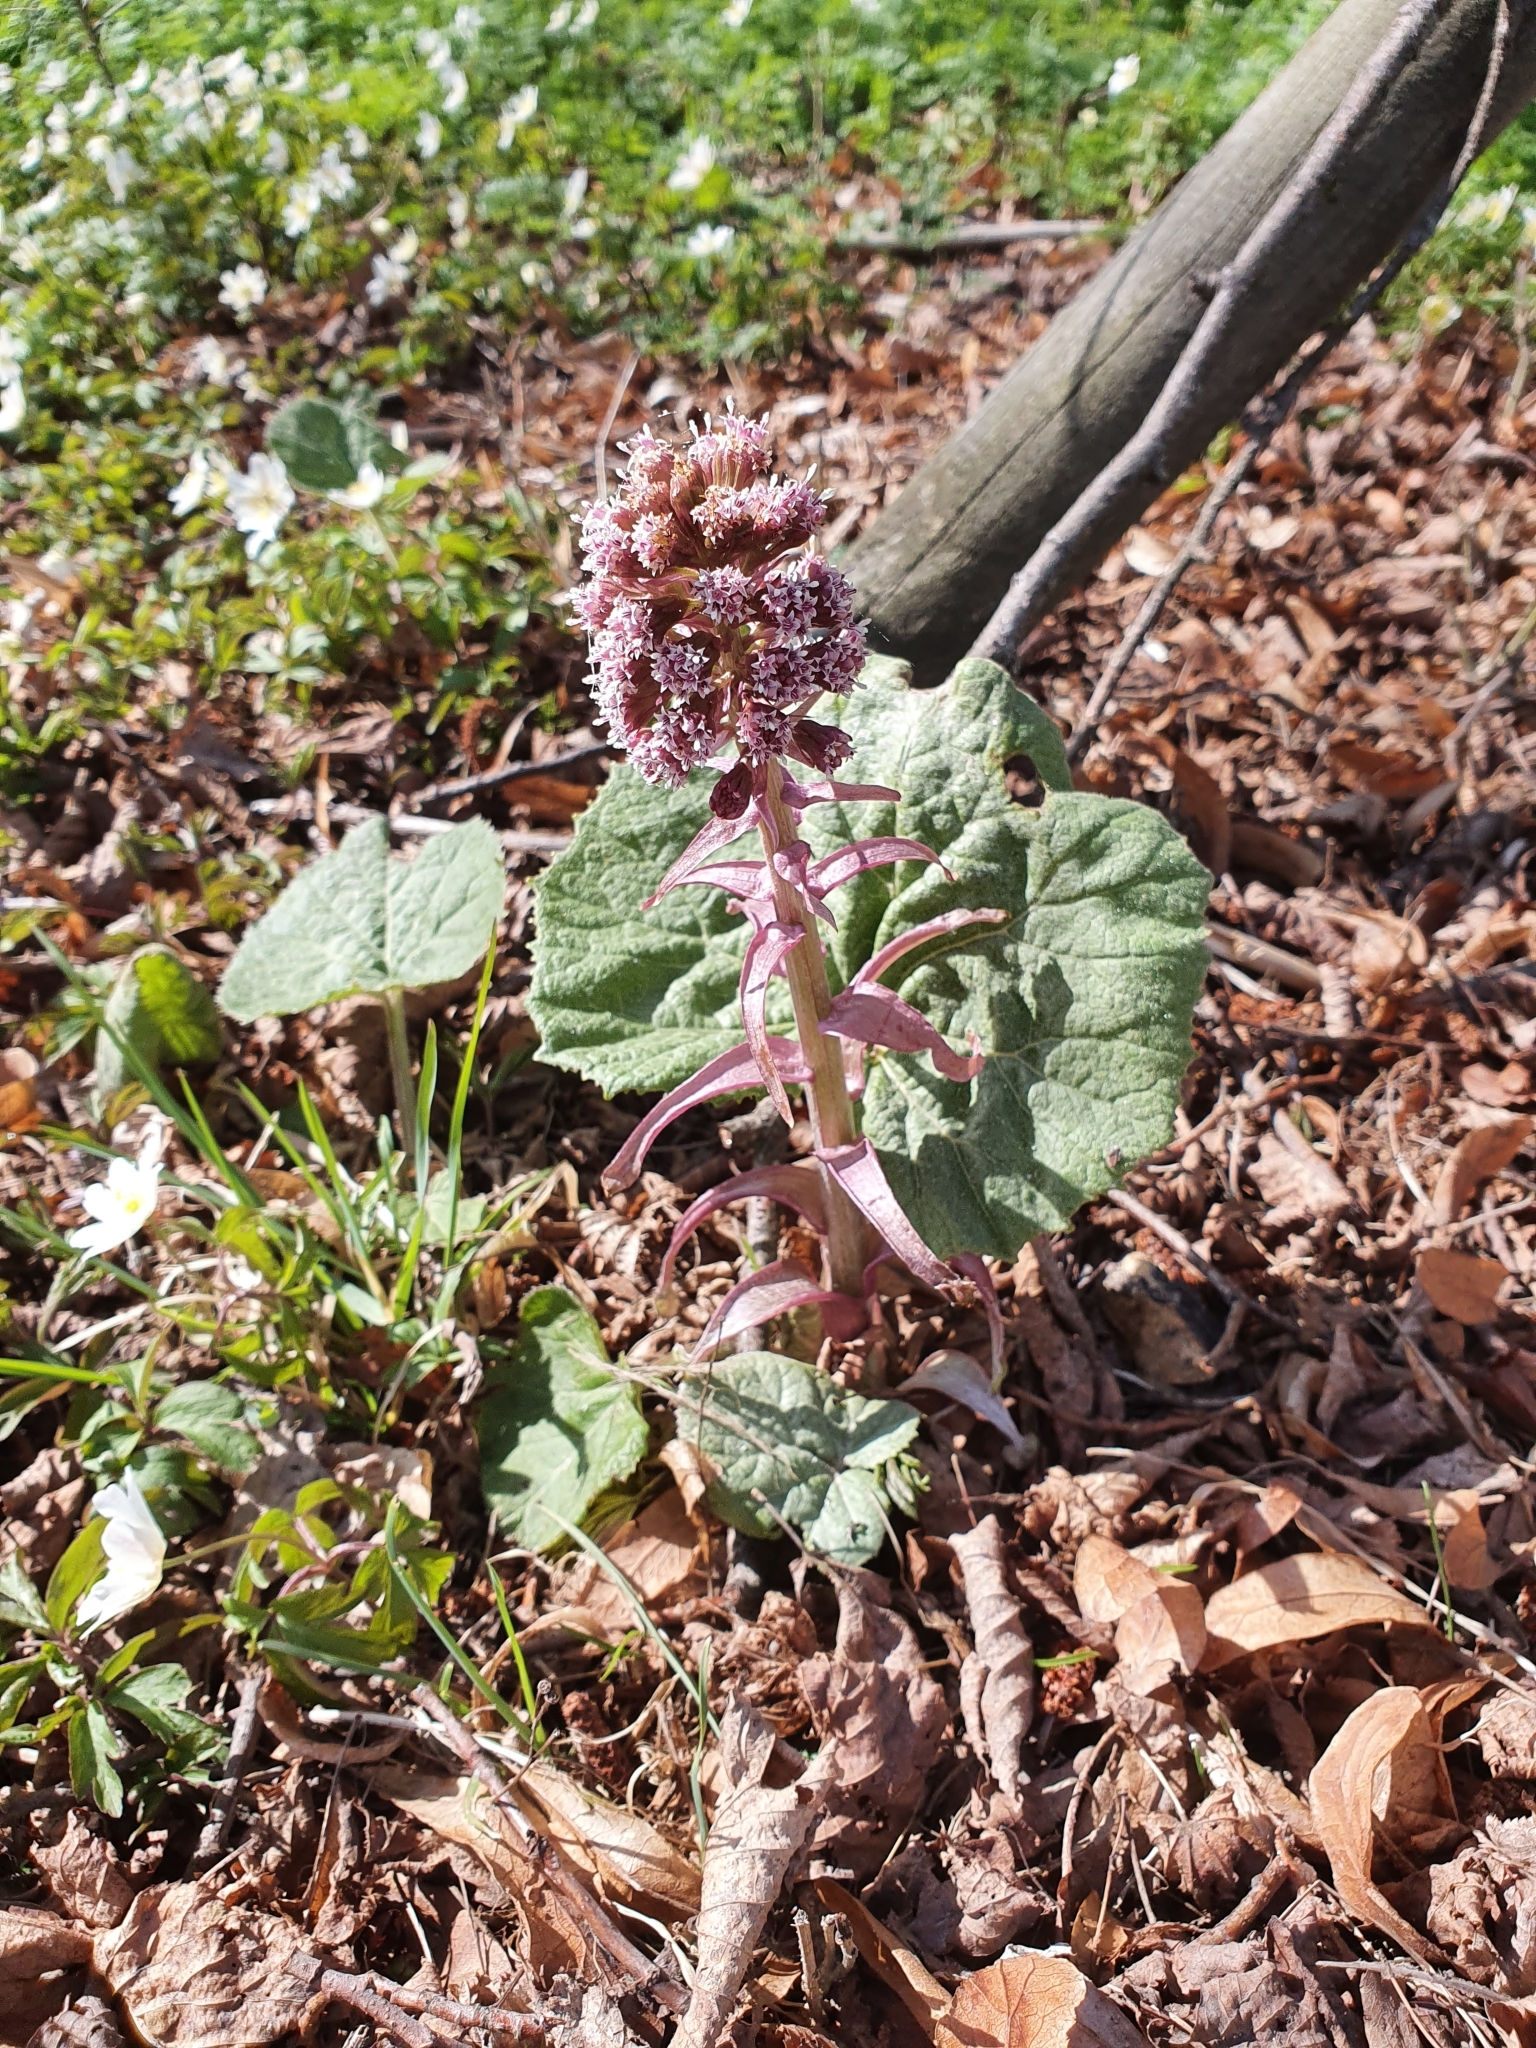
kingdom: Plantae
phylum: Tracheophyta
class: Magnoliopsida
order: Asterales
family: Asteraceae
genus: Petasites
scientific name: Petasites hybridus
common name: Butterbur
